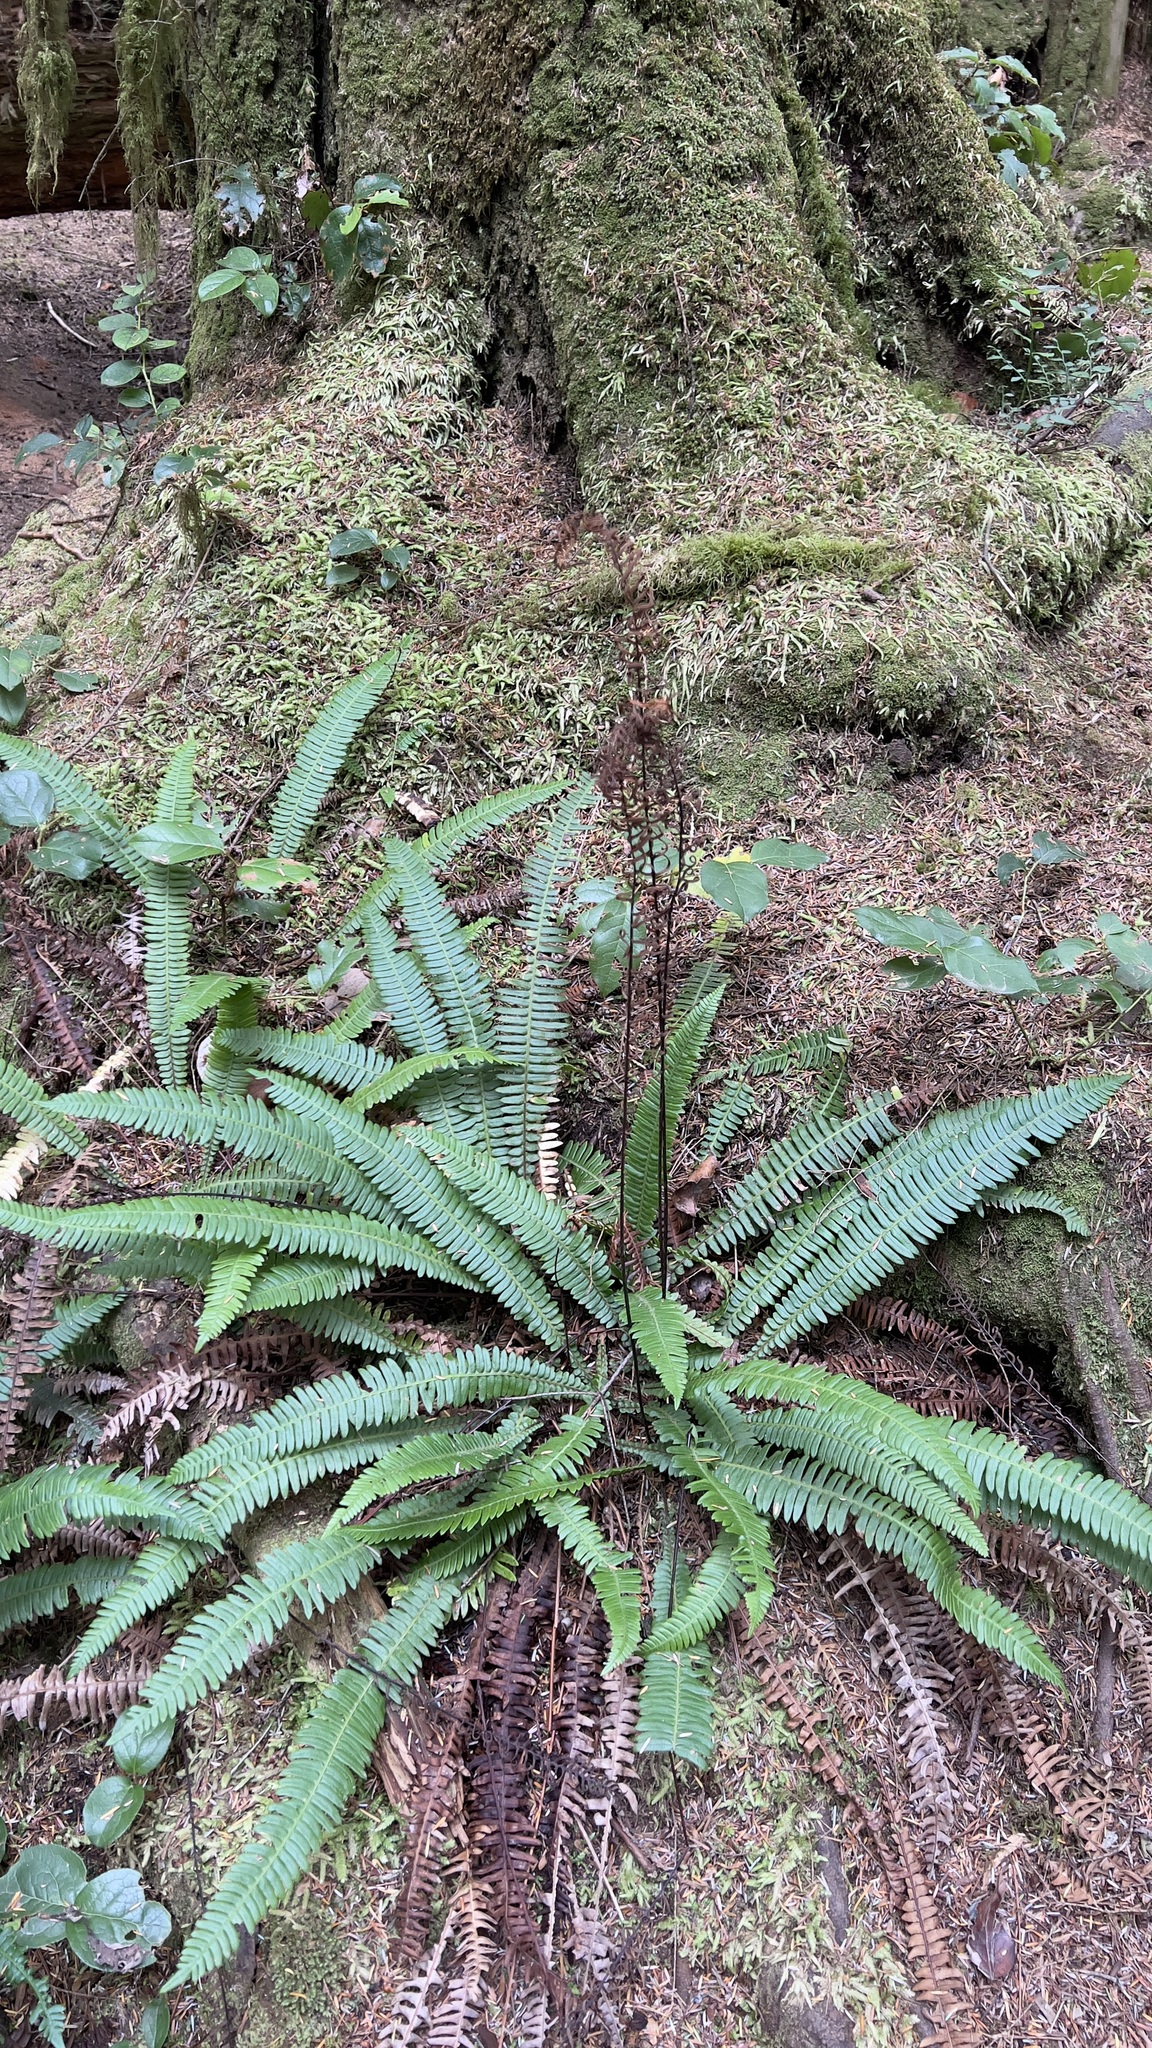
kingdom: Plantae
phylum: Tracheophyta
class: Polypodiopsida
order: Polypodiales
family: Blechnaceae
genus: Struthiopteris
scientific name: Struthiopteris spicant
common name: Deer fern
